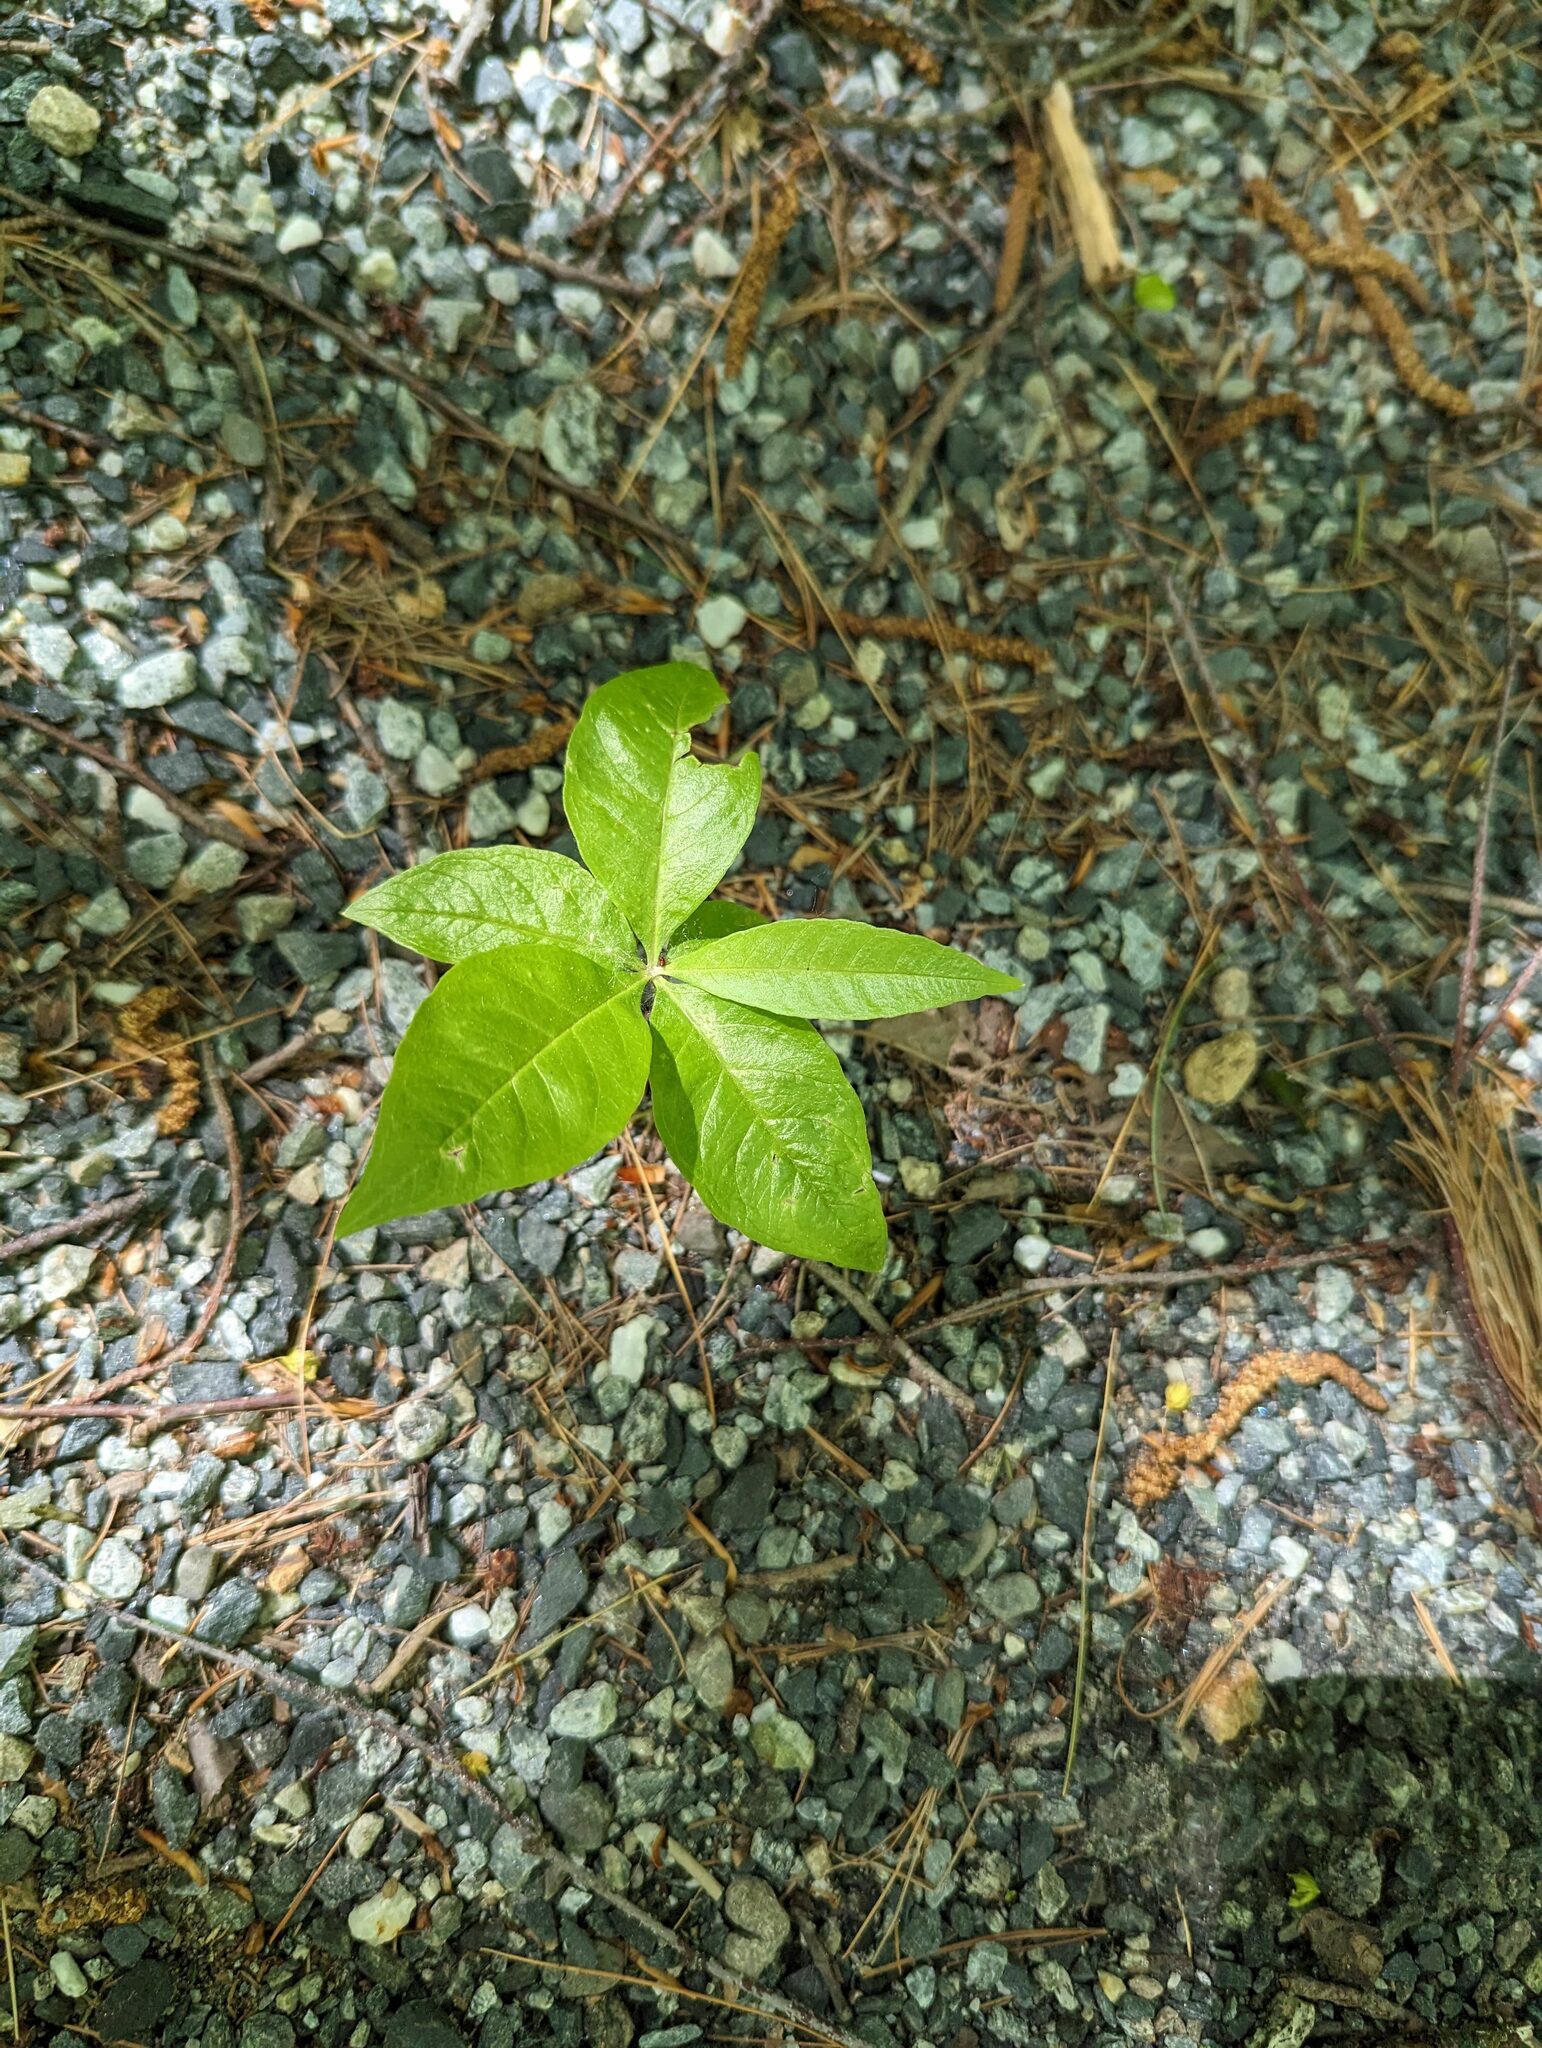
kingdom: Plantae
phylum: Tracheophyta
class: Magnoliopsida
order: Ericales
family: Primulaceae
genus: Lysimachia
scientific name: Lysimachia borealis
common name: American starflower
